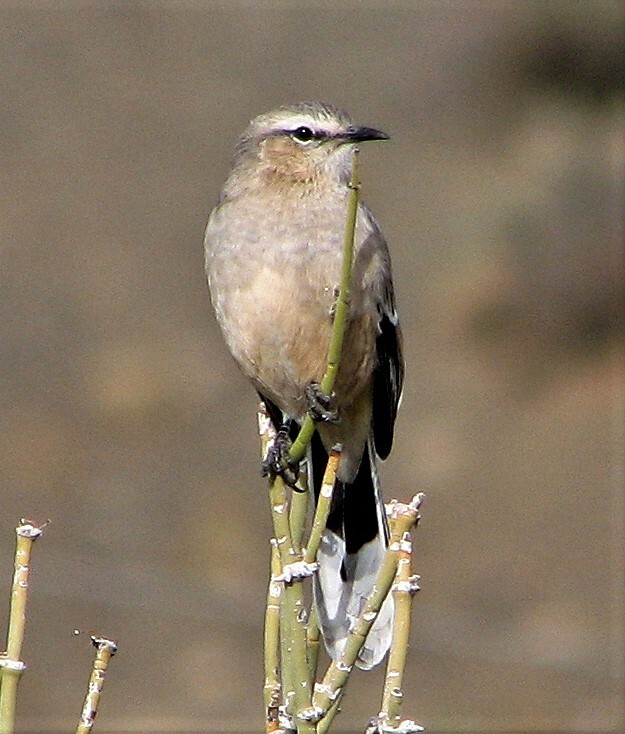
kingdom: Animalia
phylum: Chordata
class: Aves
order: Passeriformes
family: Mimidae
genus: Mimus
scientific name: Mimus patagonicus
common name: Patagonian mockingbird
